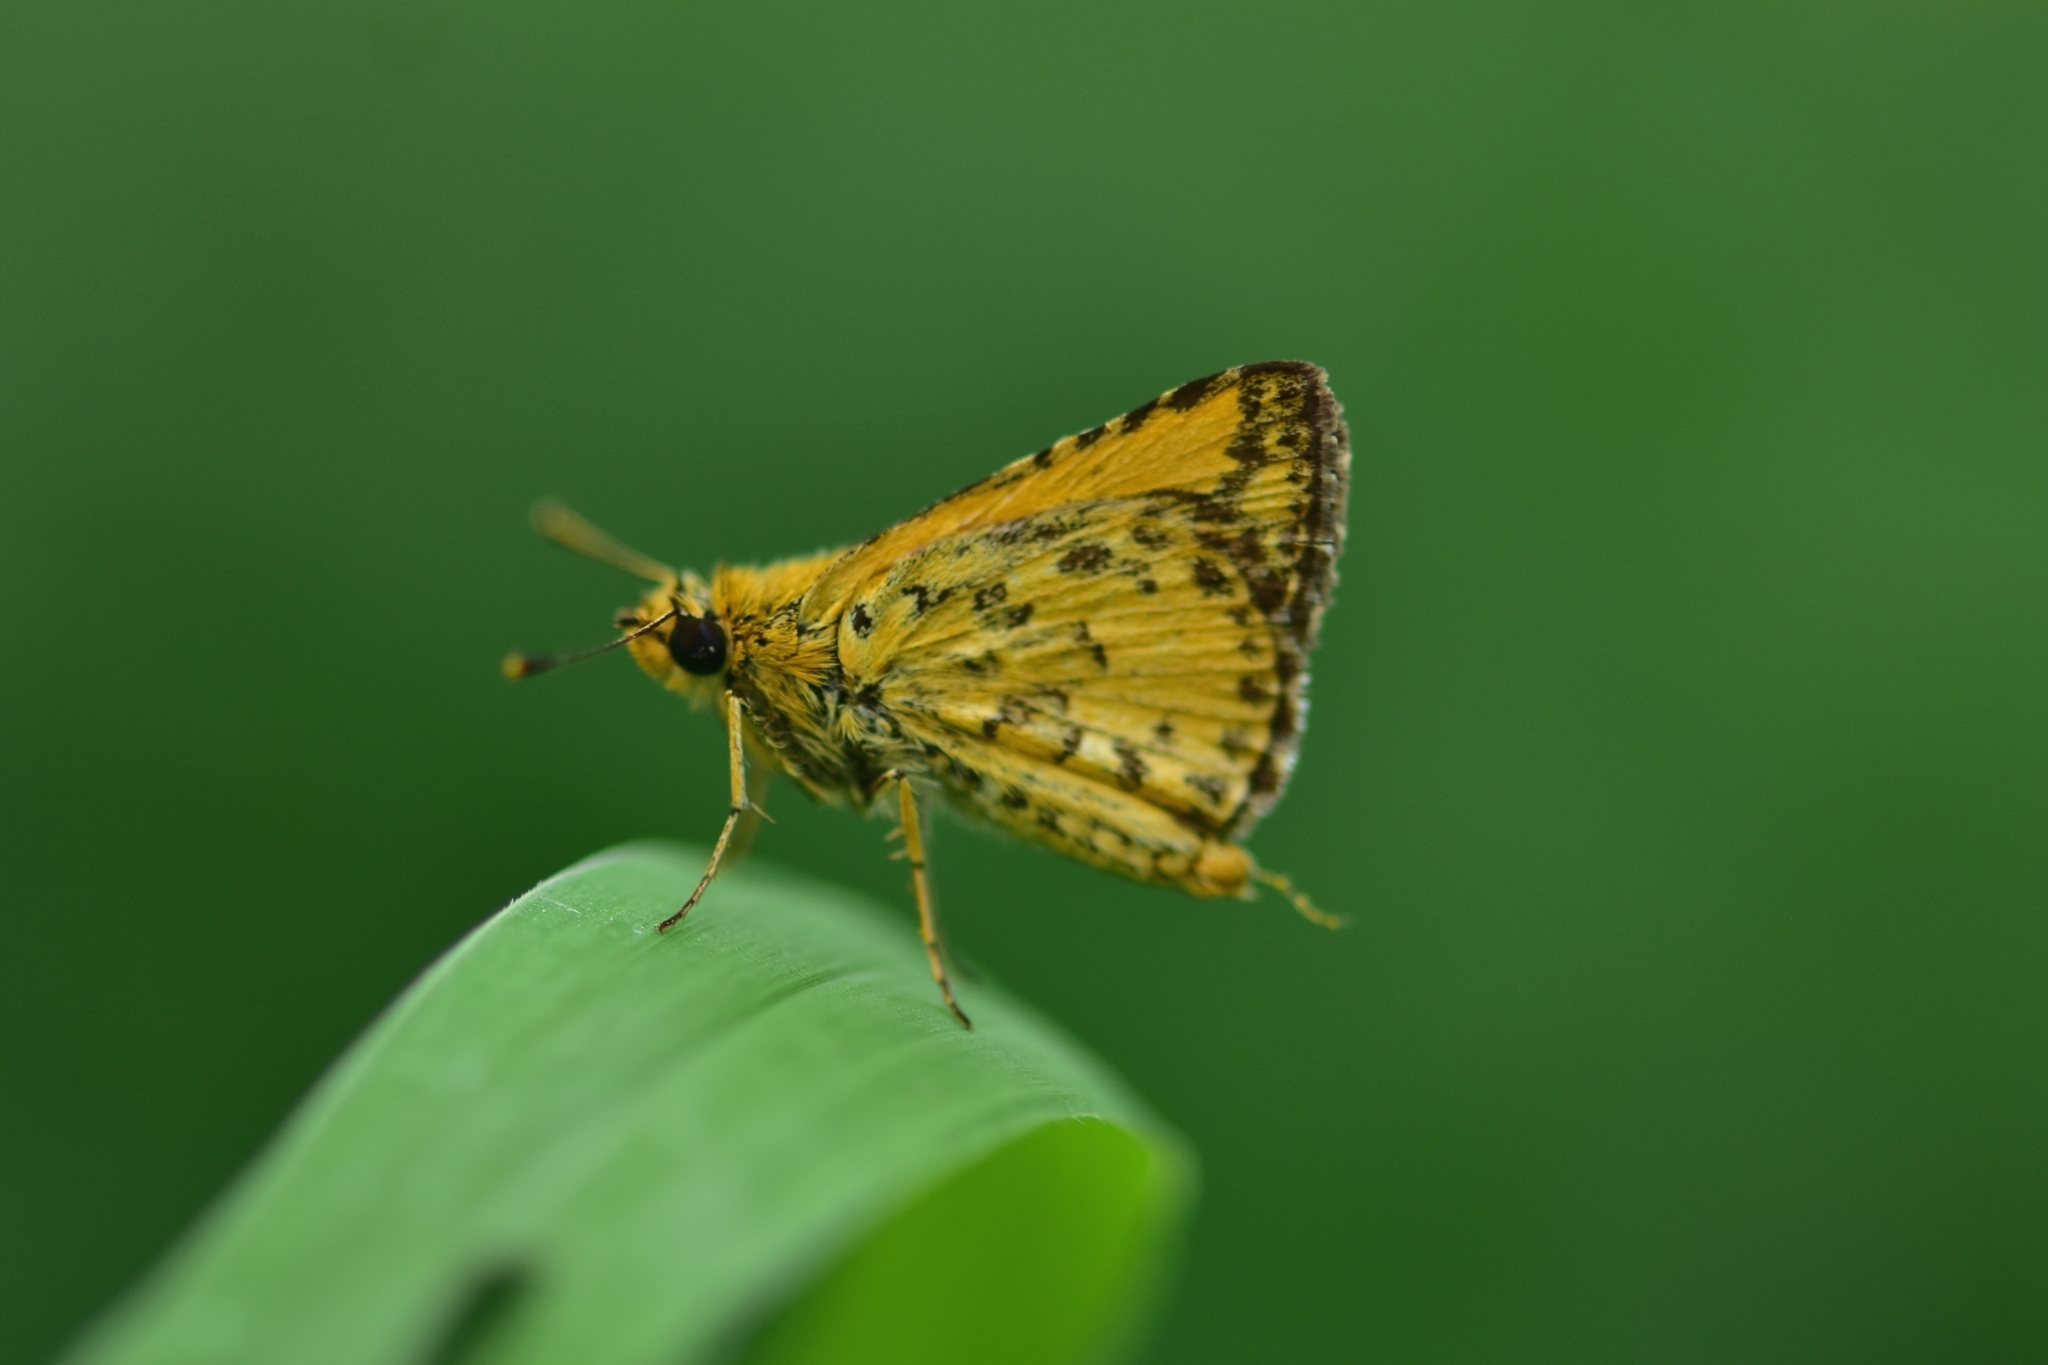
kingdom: Animalia
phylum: Arthropoda
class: Insecta
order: Lepidoptera
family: Hesperiidae
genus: Ampittia
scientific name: Ampittia dioscorides
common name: Common bush hopper
